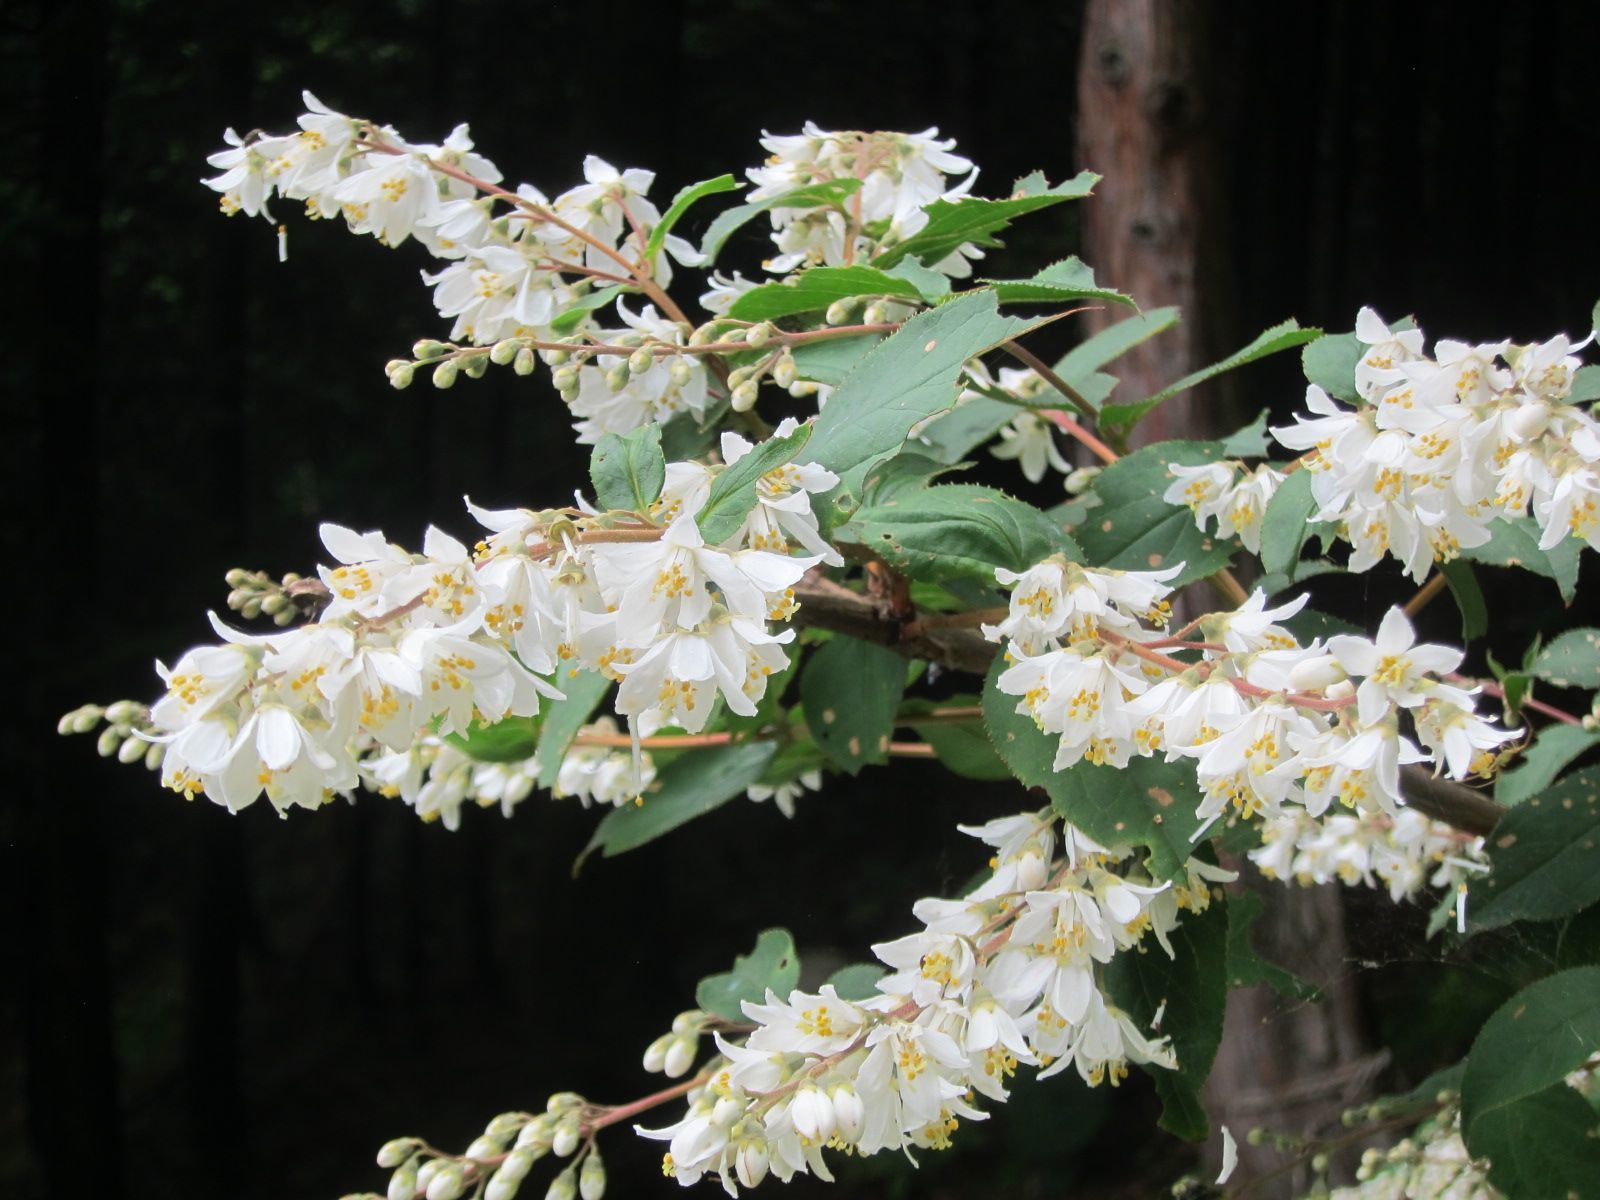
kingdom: Plantae
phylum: Tracheophyta
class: Magnoliopsida
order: Cornales
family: Hydrangeaceae
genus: Deutzia
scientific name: Deutzia crenata
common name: Deutzia
